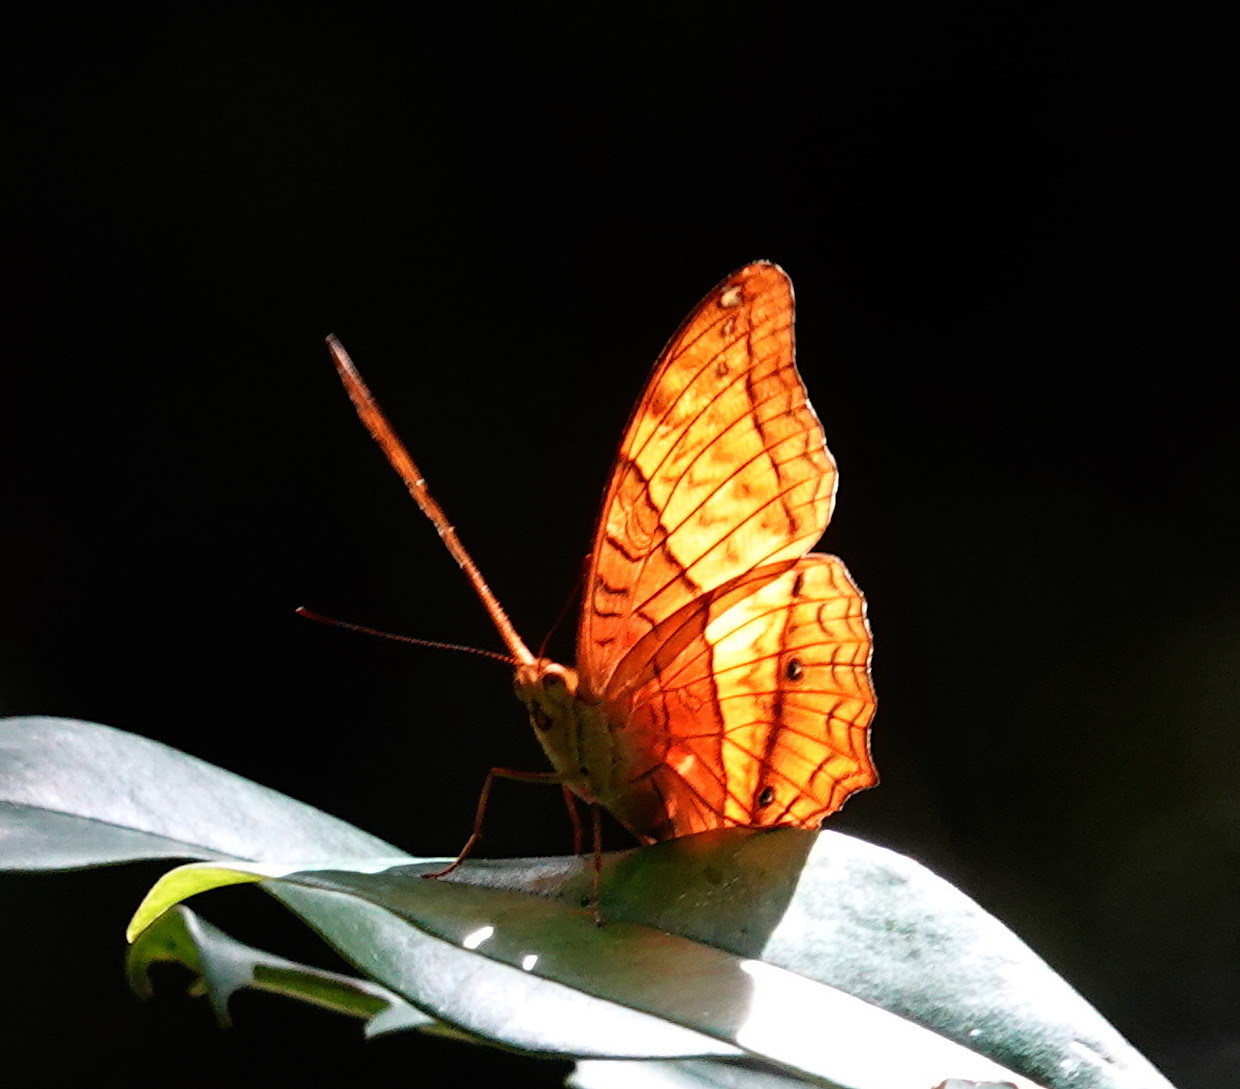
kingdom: Animalia
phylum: Arthropoda
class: Insecta
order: Lepidoptera
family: Nymphalidae
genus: Vindula
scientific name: Vindula deione
